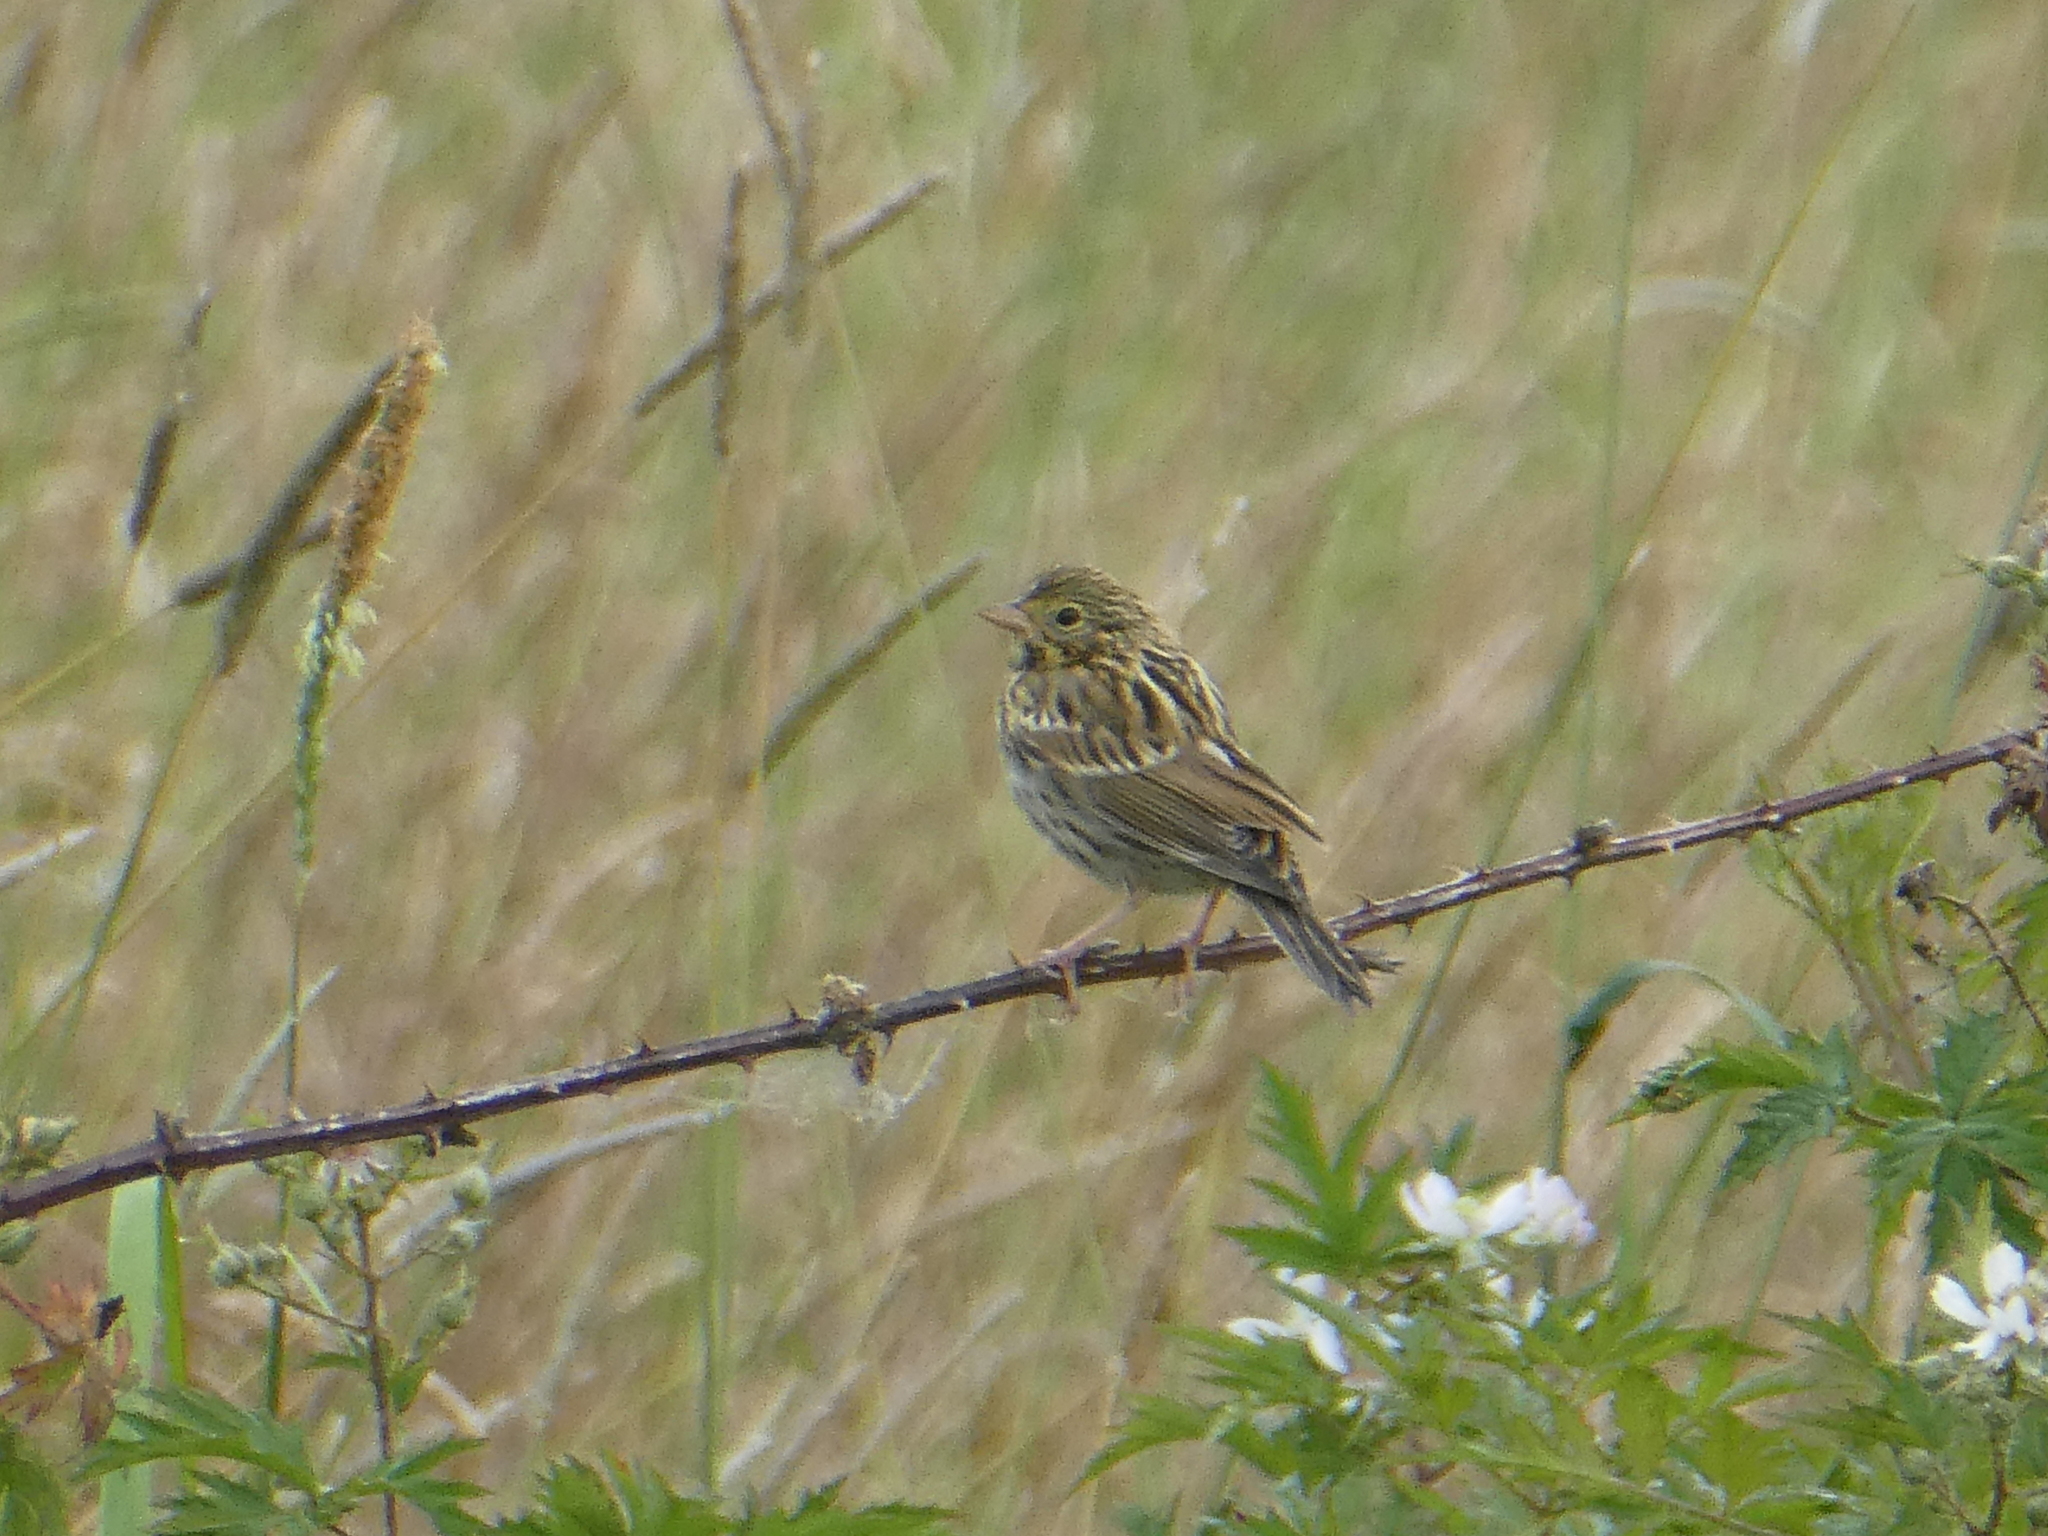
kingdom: Animalia
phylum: Chordata
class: Aves
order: Passeriformes
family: Passerellidae
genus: Passerculus
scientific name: Passerculus sandwichensis
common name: Savannah sparrow
